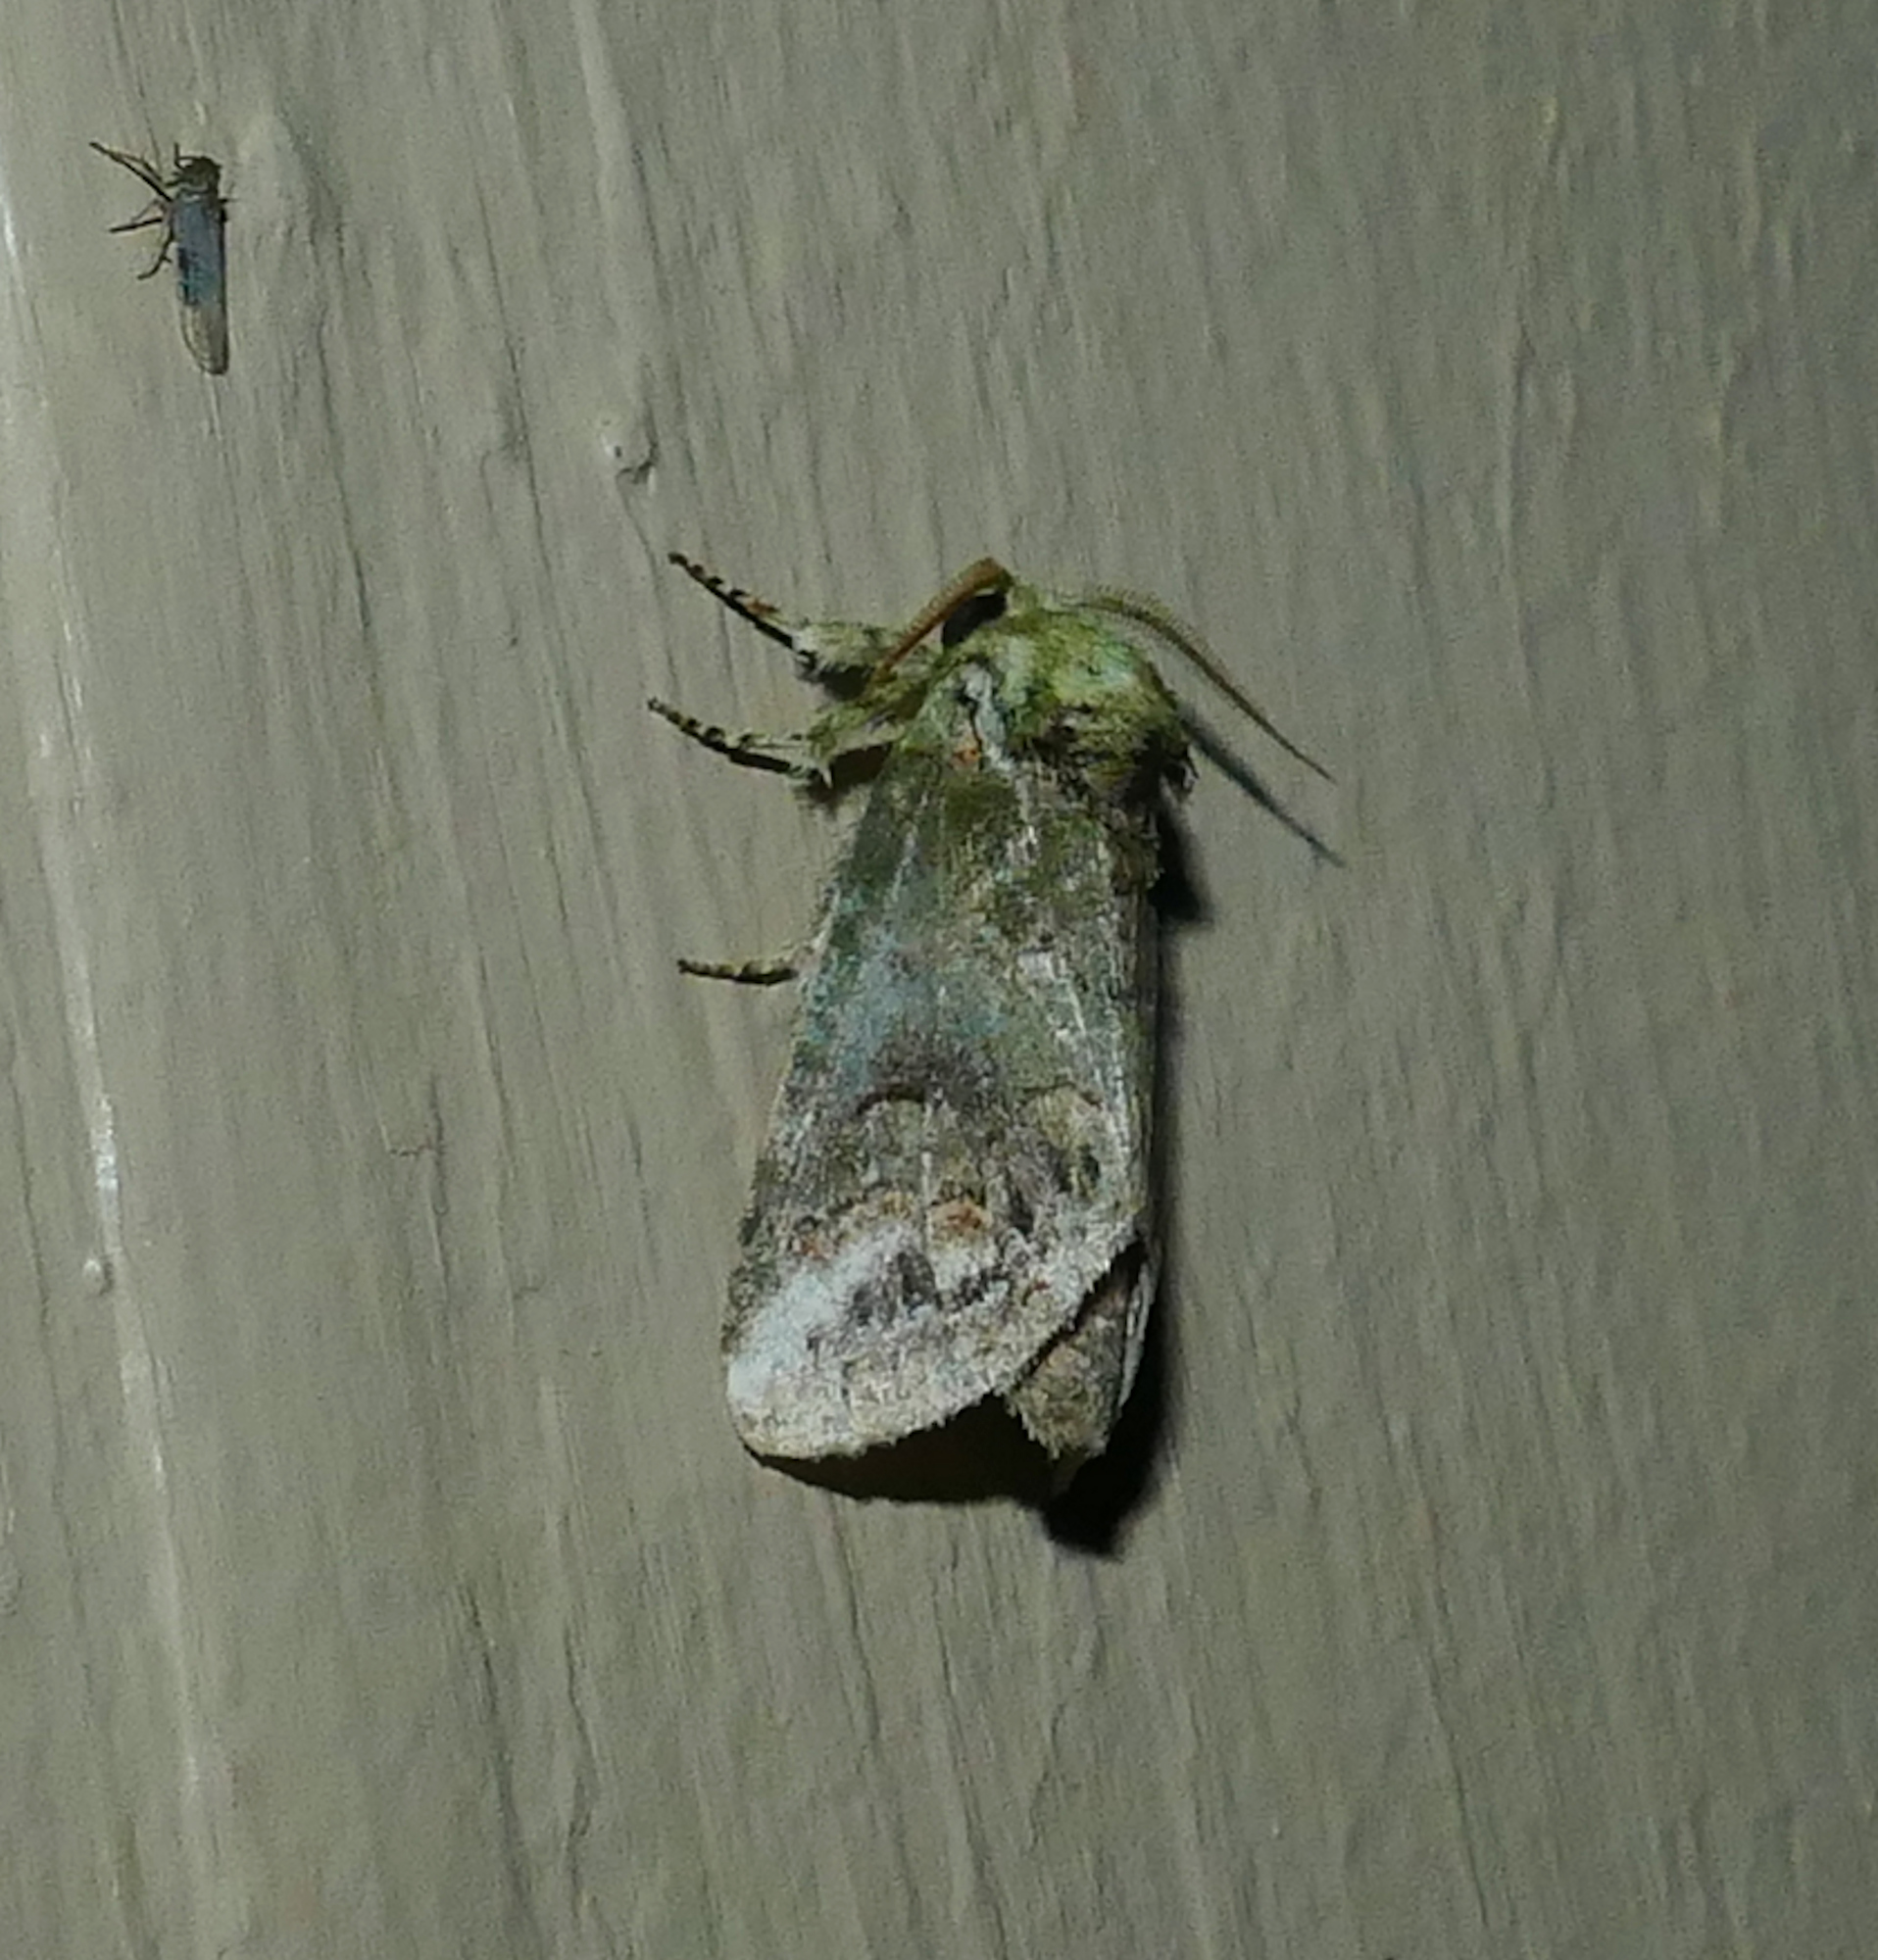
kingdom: Animalia
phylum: Arthropoda
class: Insecta
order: Lepidoptera
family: Notodontidae
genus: Rifargia
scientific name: Rifargia
